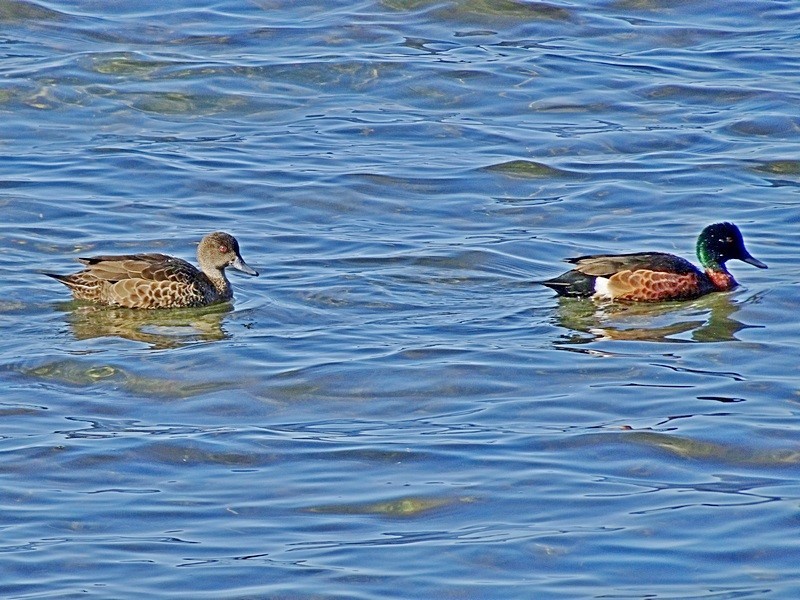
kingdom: Animalia
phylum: Chordata
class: Aves
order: Anseriformes
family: Anatidae
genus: Anas
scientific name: Anas castanea
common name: Chestnut teal
